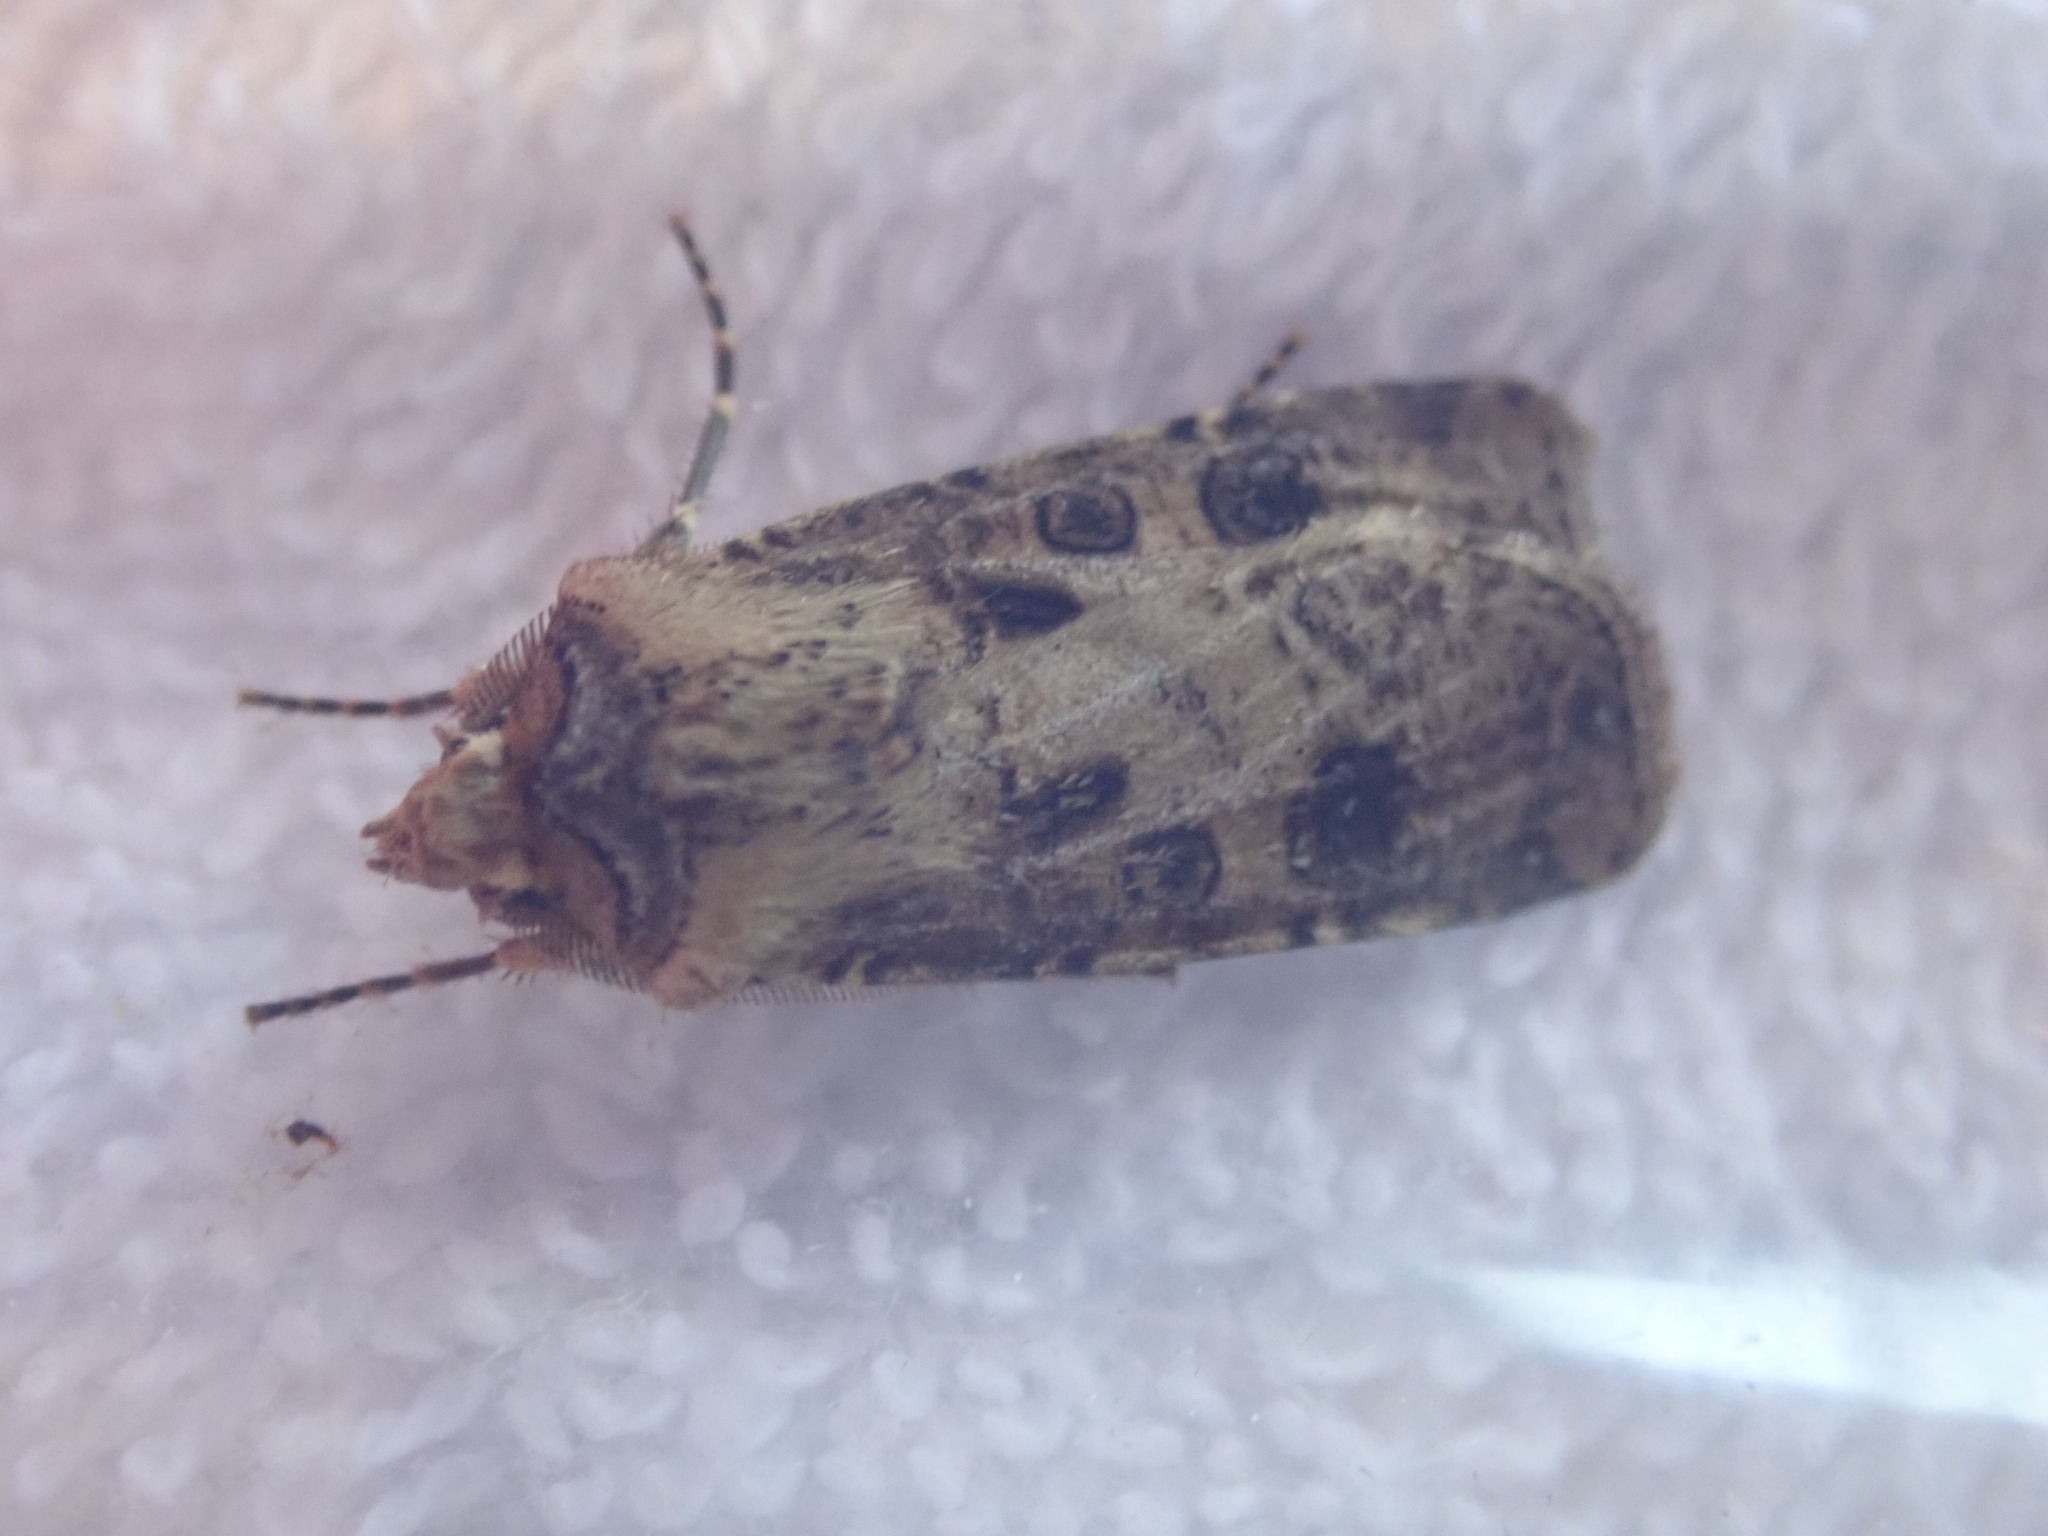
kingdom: Animalia
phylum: Arthropoda
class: Insecta
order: Lepidoptera
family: Noctuidae
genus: Agrotis
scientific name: Agrotis clavis
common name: Heart and club
